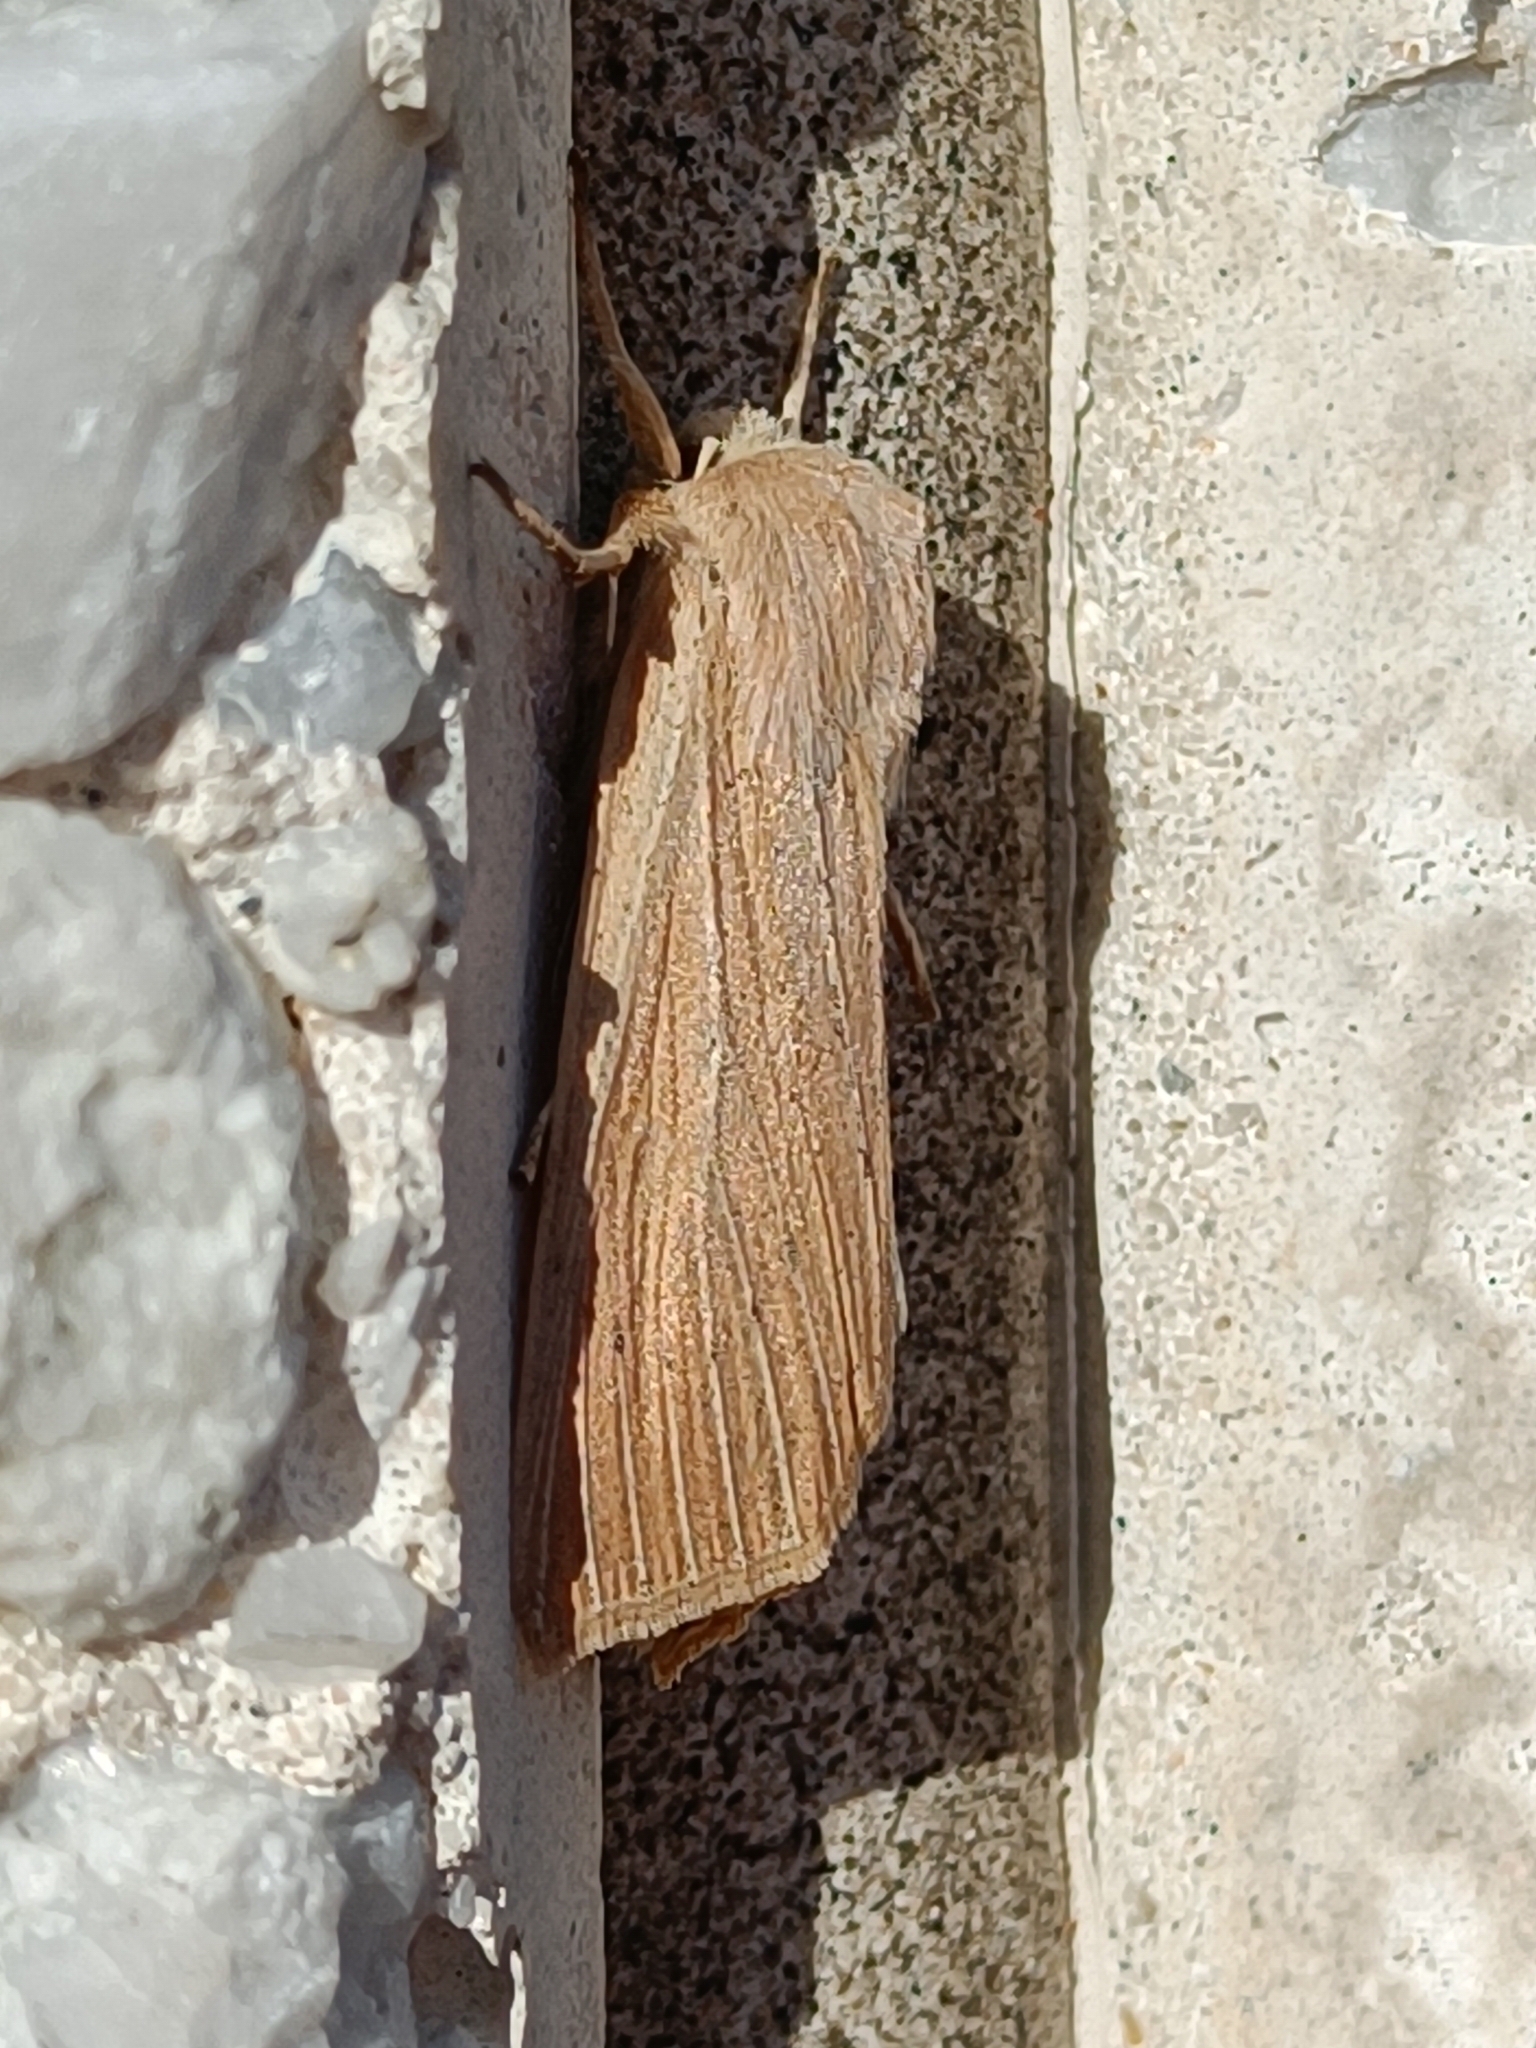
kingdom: Animalia
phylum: Arthropoda
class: Insecta
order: Lepidoptera
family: Noctuidae
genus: Rhizedra
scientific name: Rhizedra lutosa
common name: Large wainscot
